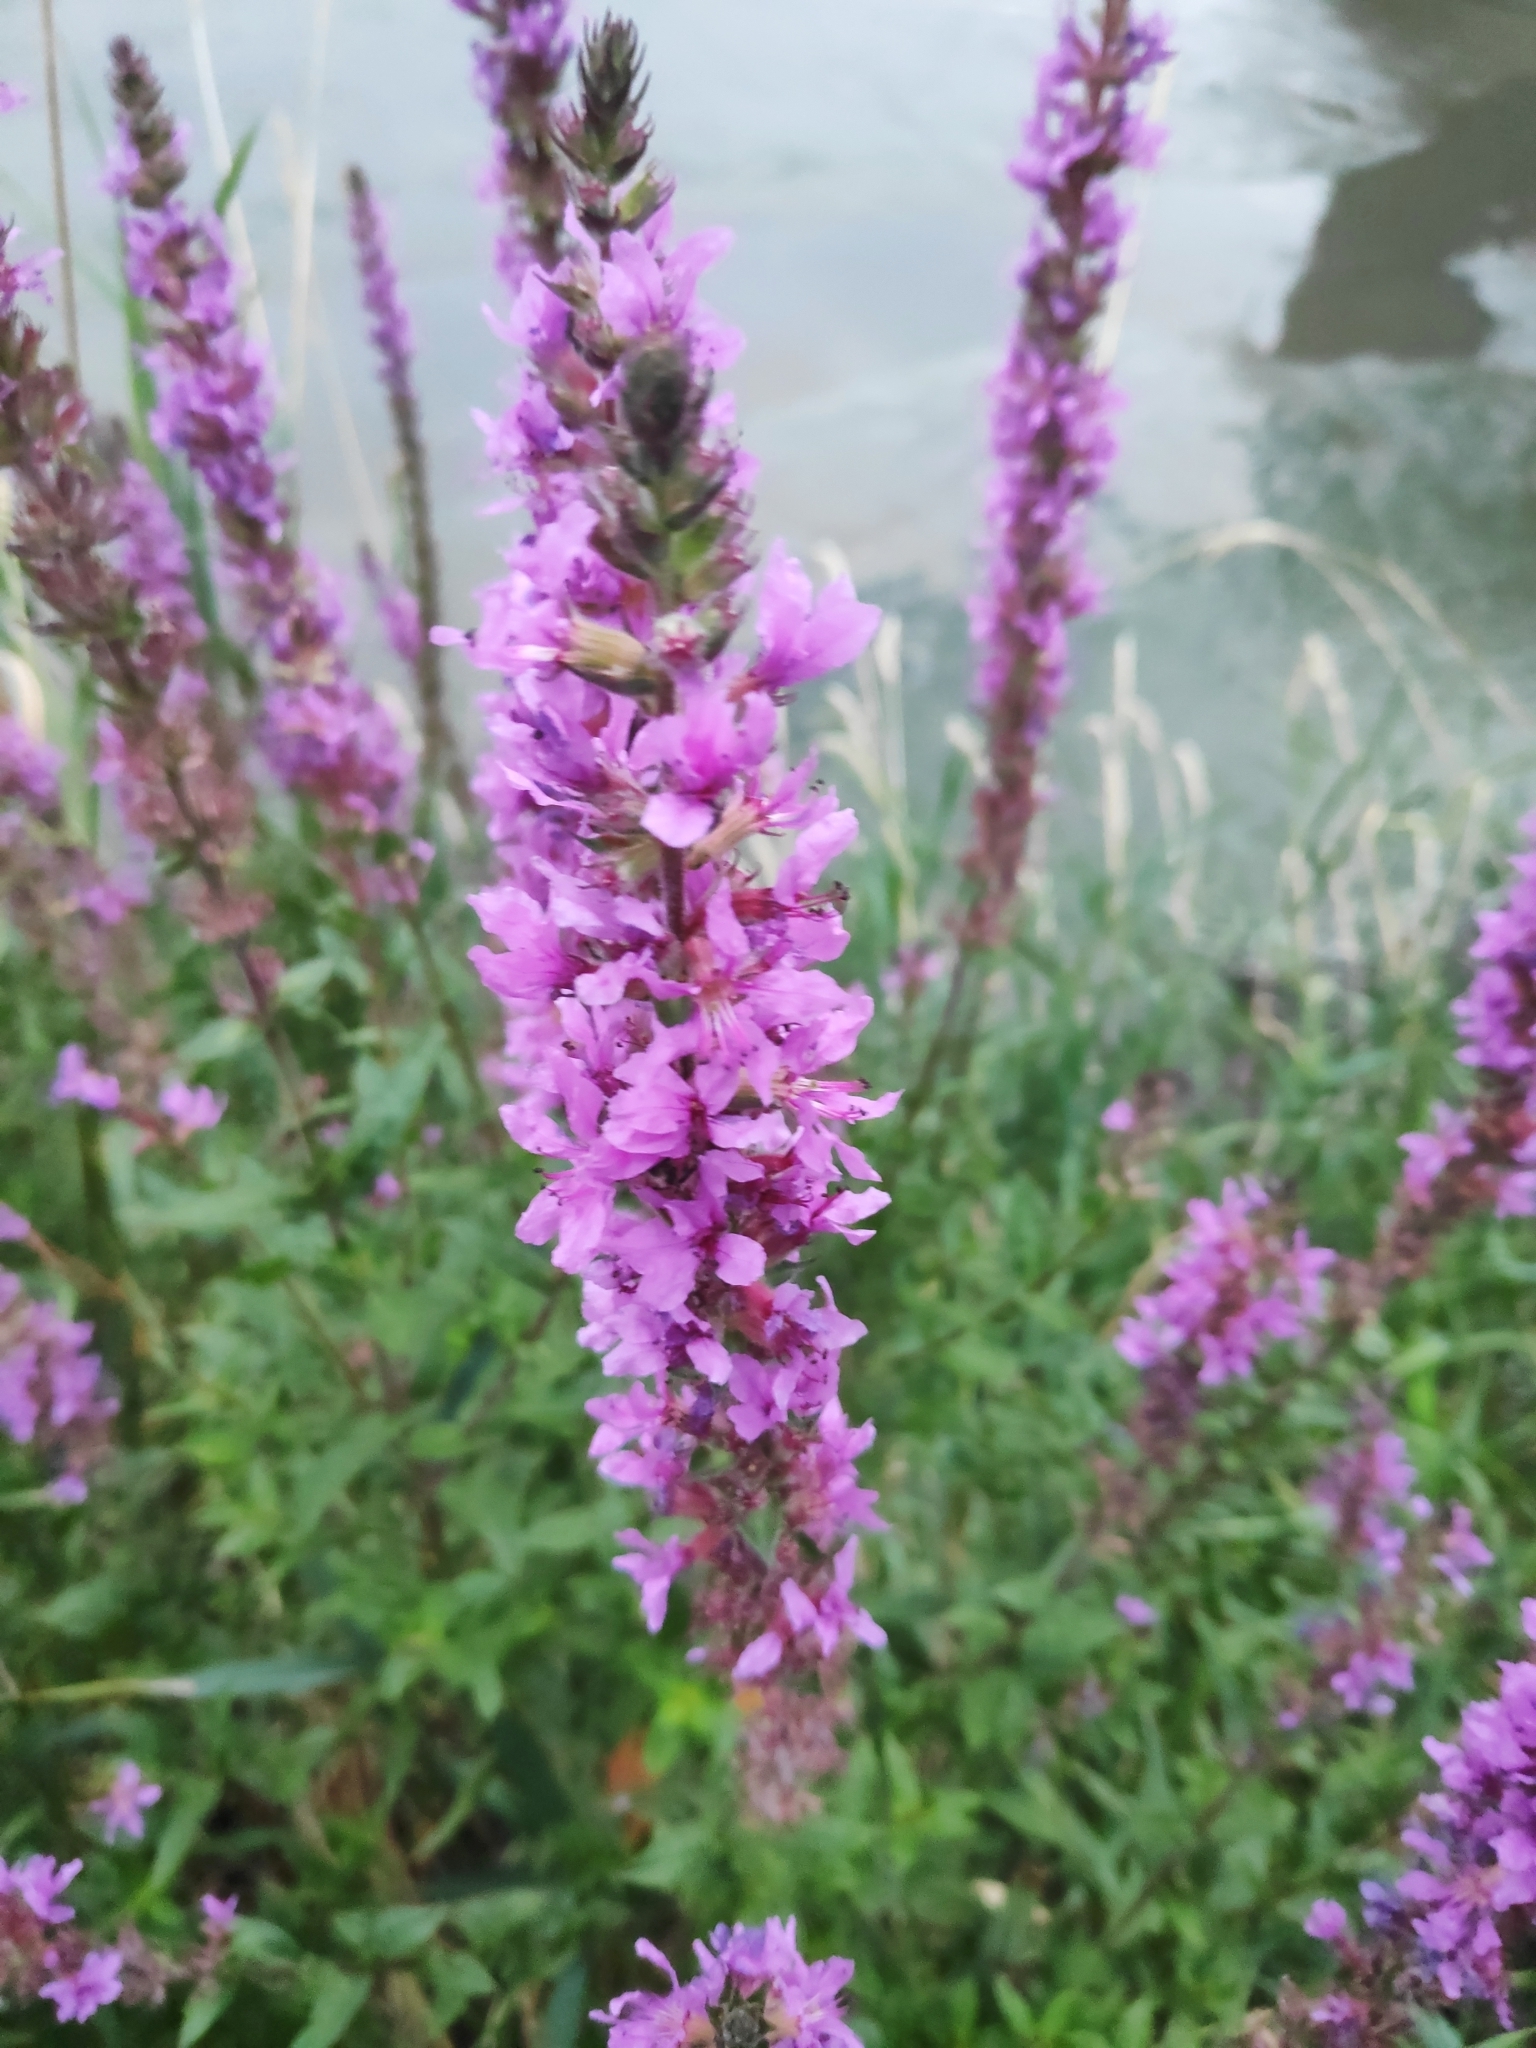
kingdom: Plantae
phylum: Tracheophyta
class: Magnoliopsida
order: Myrtales
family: Lythraceae
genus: Lythrum
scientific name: Lythrum salicaria
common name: Purple loosestrife
